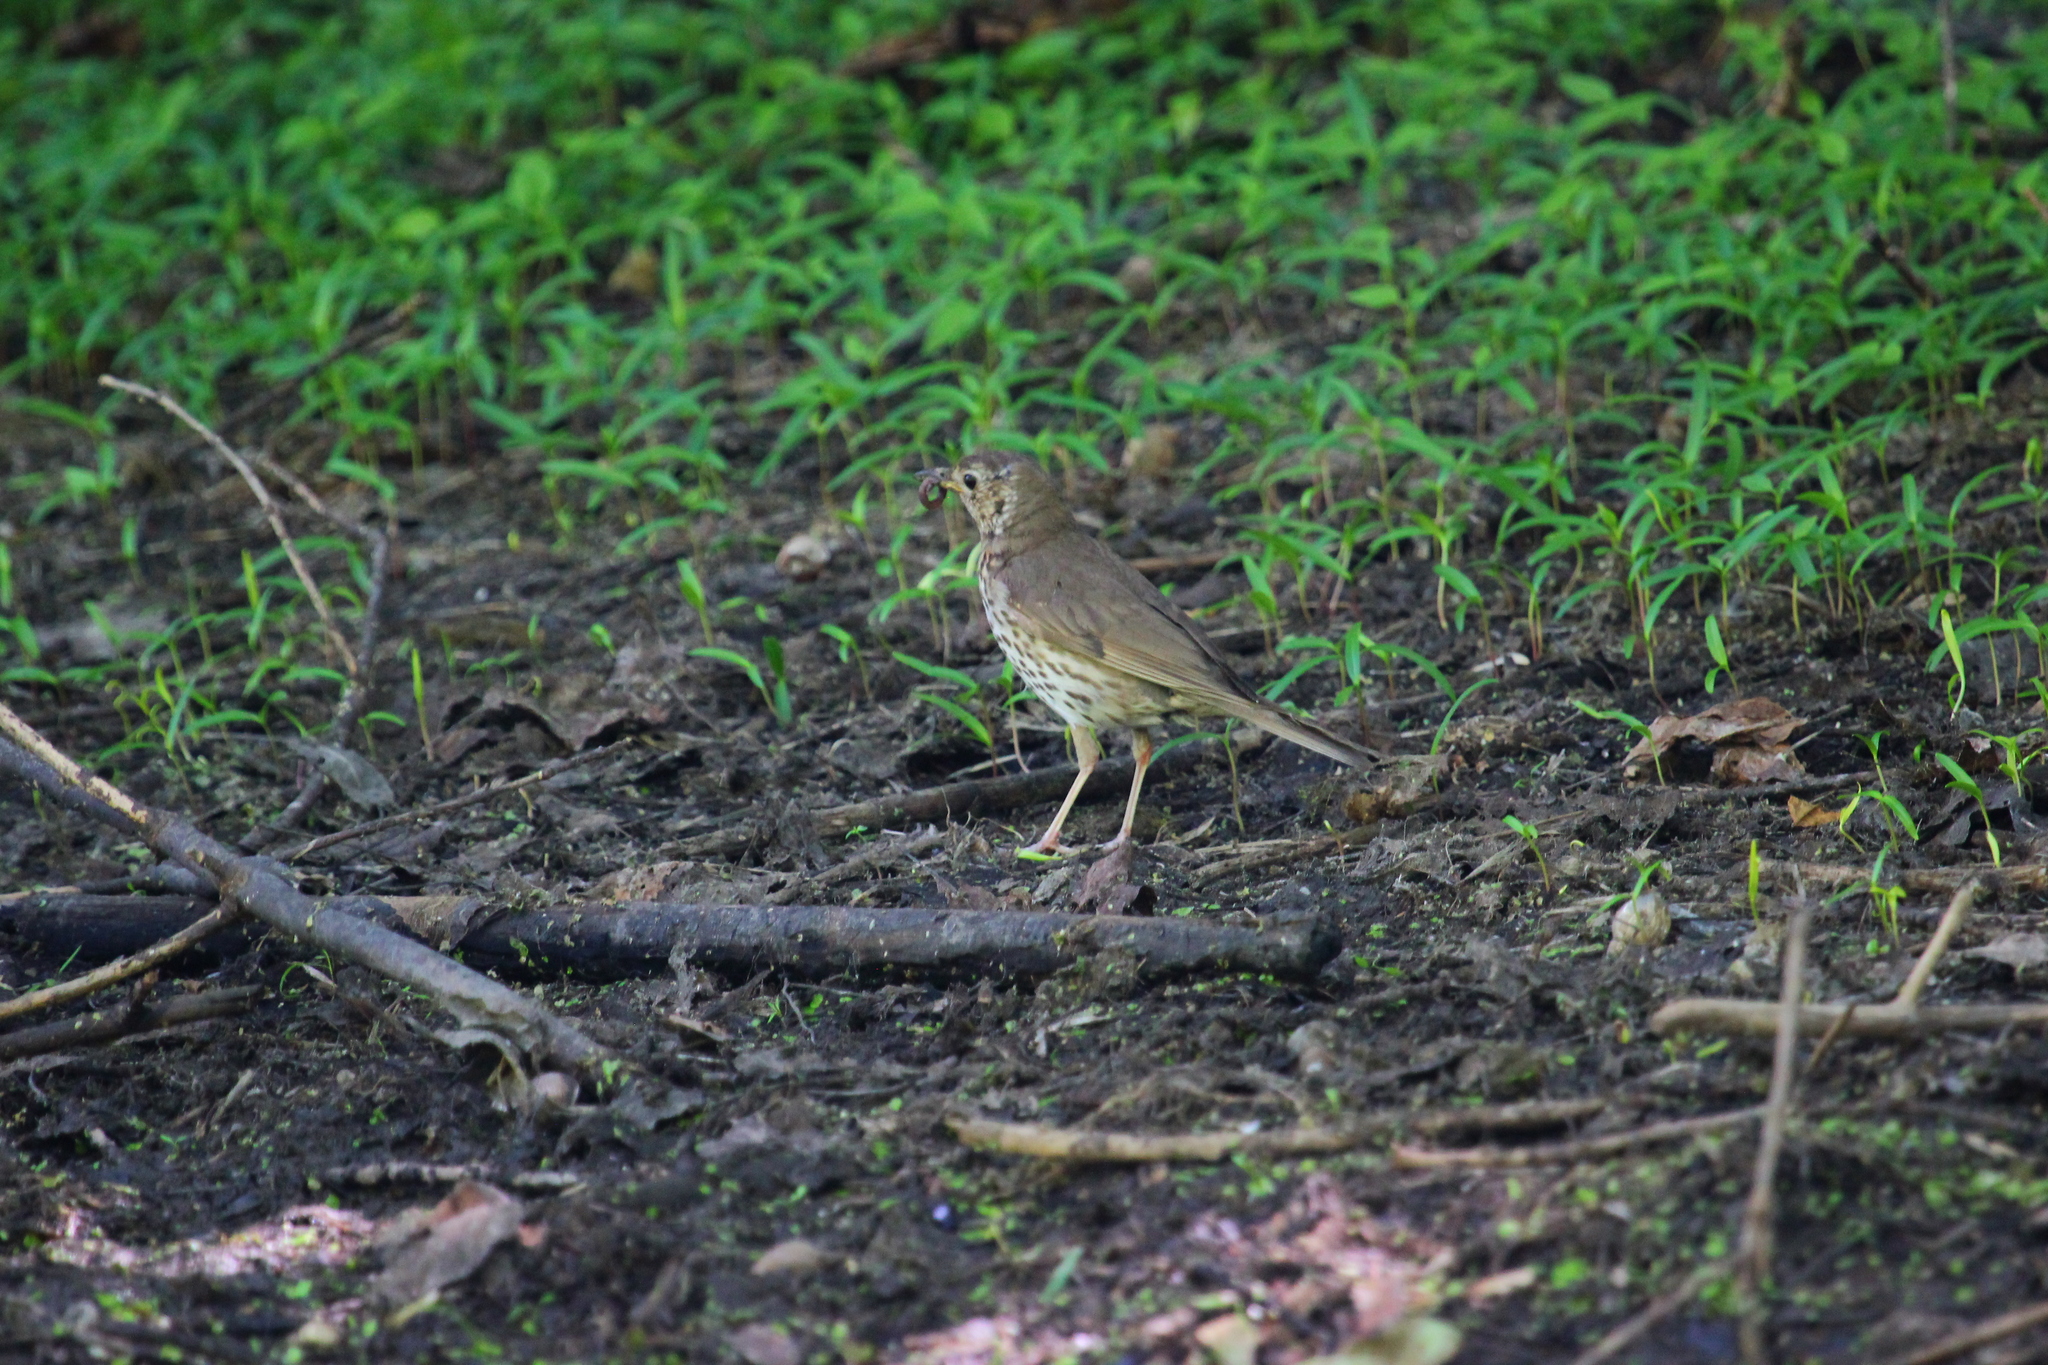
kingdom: Animalia
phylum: Chordata
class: Aves
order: Passeriformes
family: Turdidae
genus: Turdus
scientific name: Turdus philomelos
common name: Song thrush
